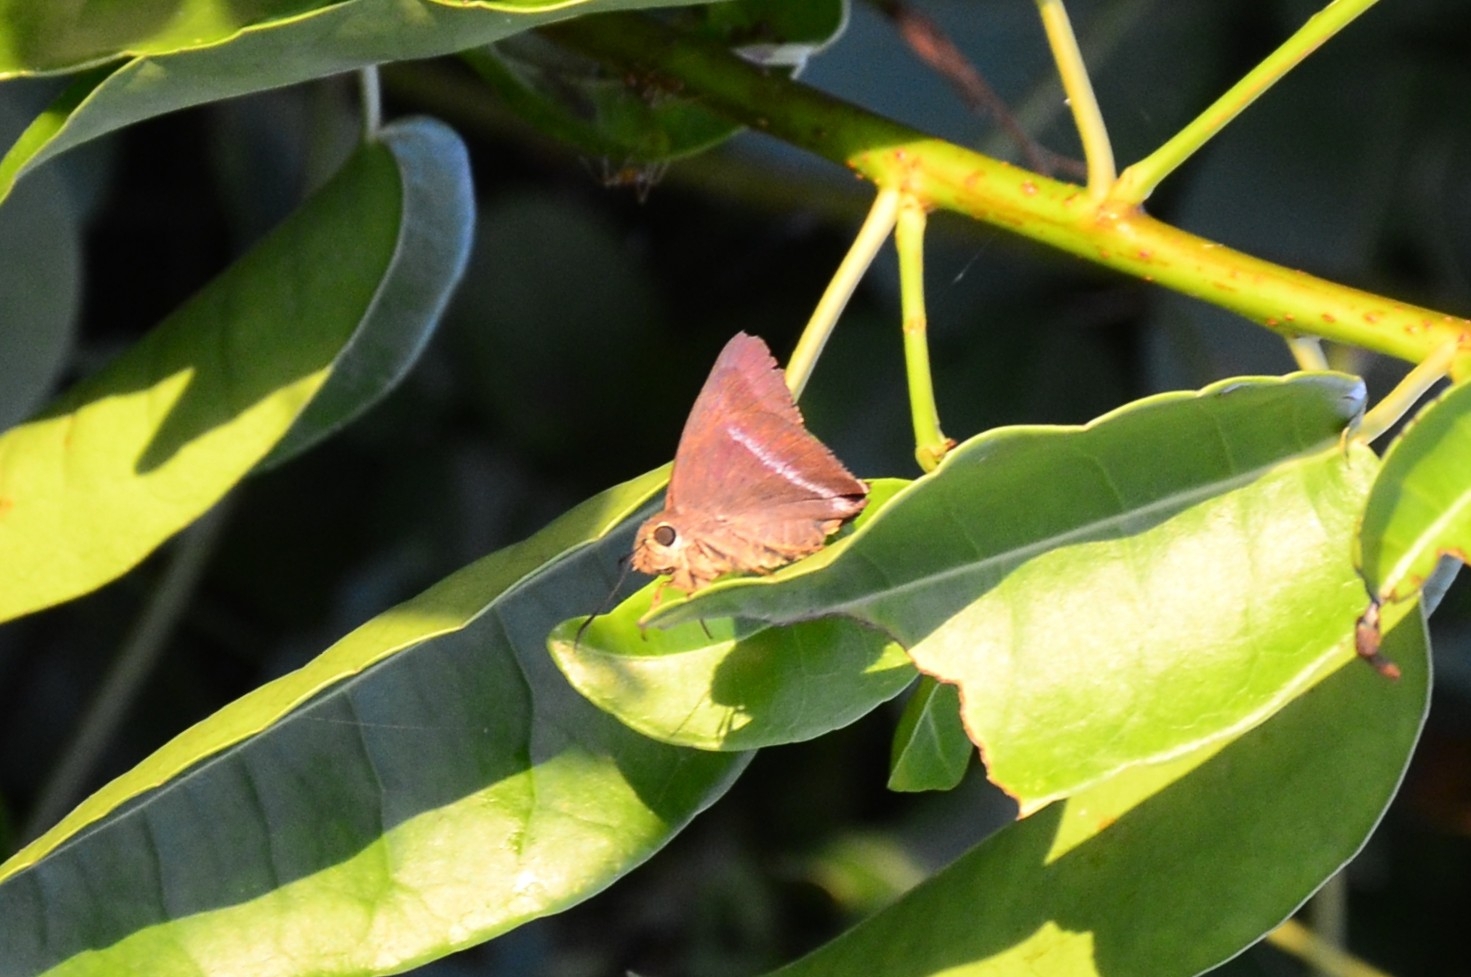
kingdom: Animalia
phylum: Arthropoda
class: Insecta
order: Lepidoptera
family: Hesperiidae
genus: Hasora
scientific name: Hasora chromus
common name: Common banded awl
